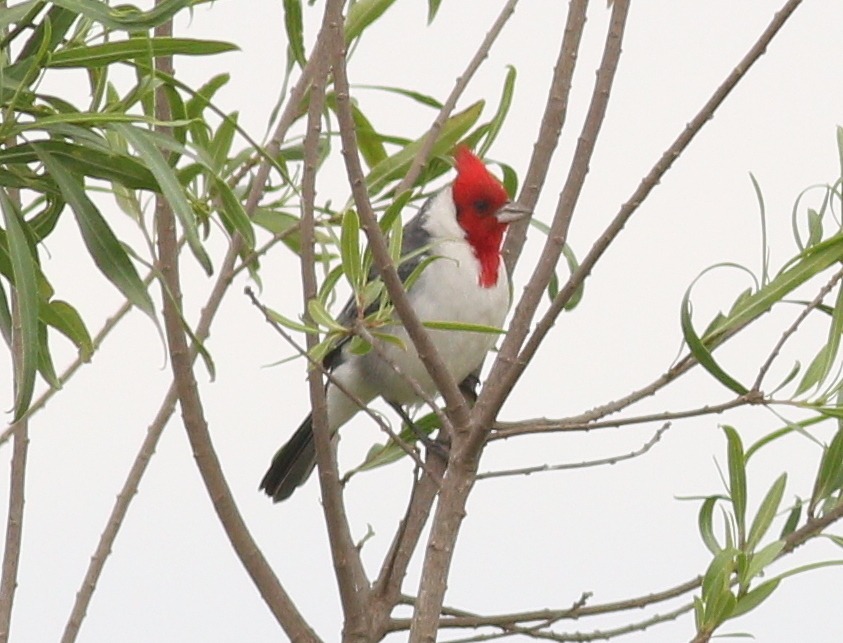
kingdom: Animalia
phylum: Chordata
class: Aves
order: Passeriformes
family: Thraupidae
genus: Paroaria
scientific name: Paroaria coronata
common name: Red-crested cardinal
